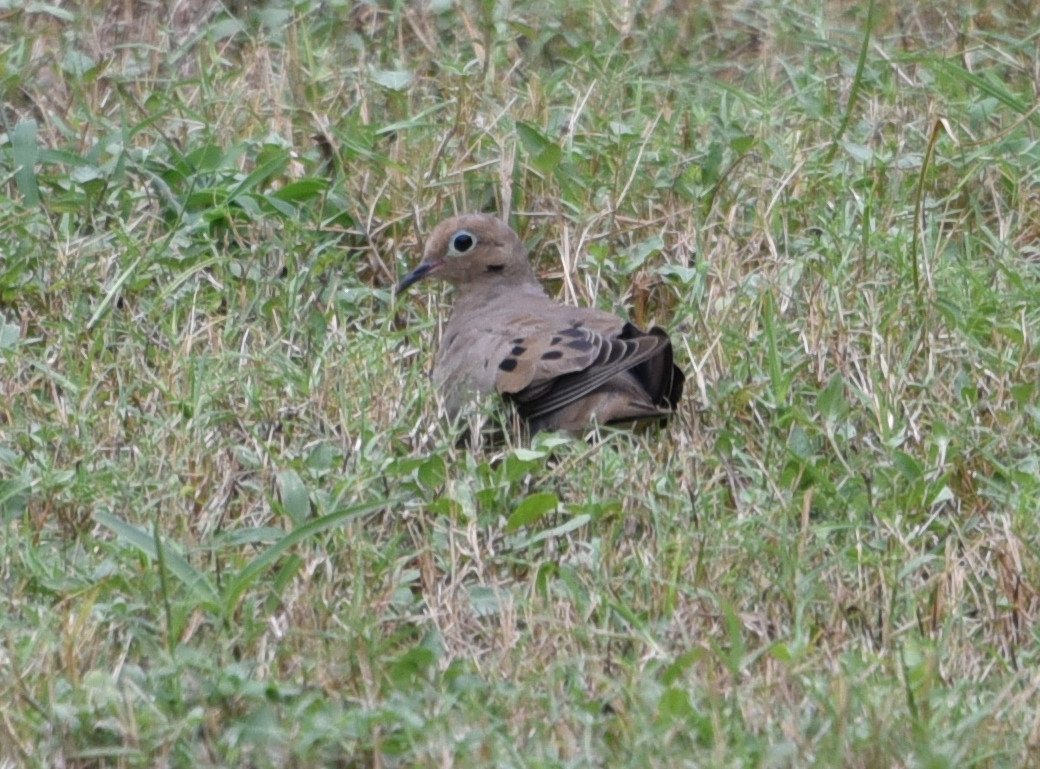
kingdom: Animalia
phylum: Chordata
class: Aves
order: Columbiformes
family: Columbidae
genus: Zenaida
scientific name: Zenaida macroura
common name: Mourning dove
